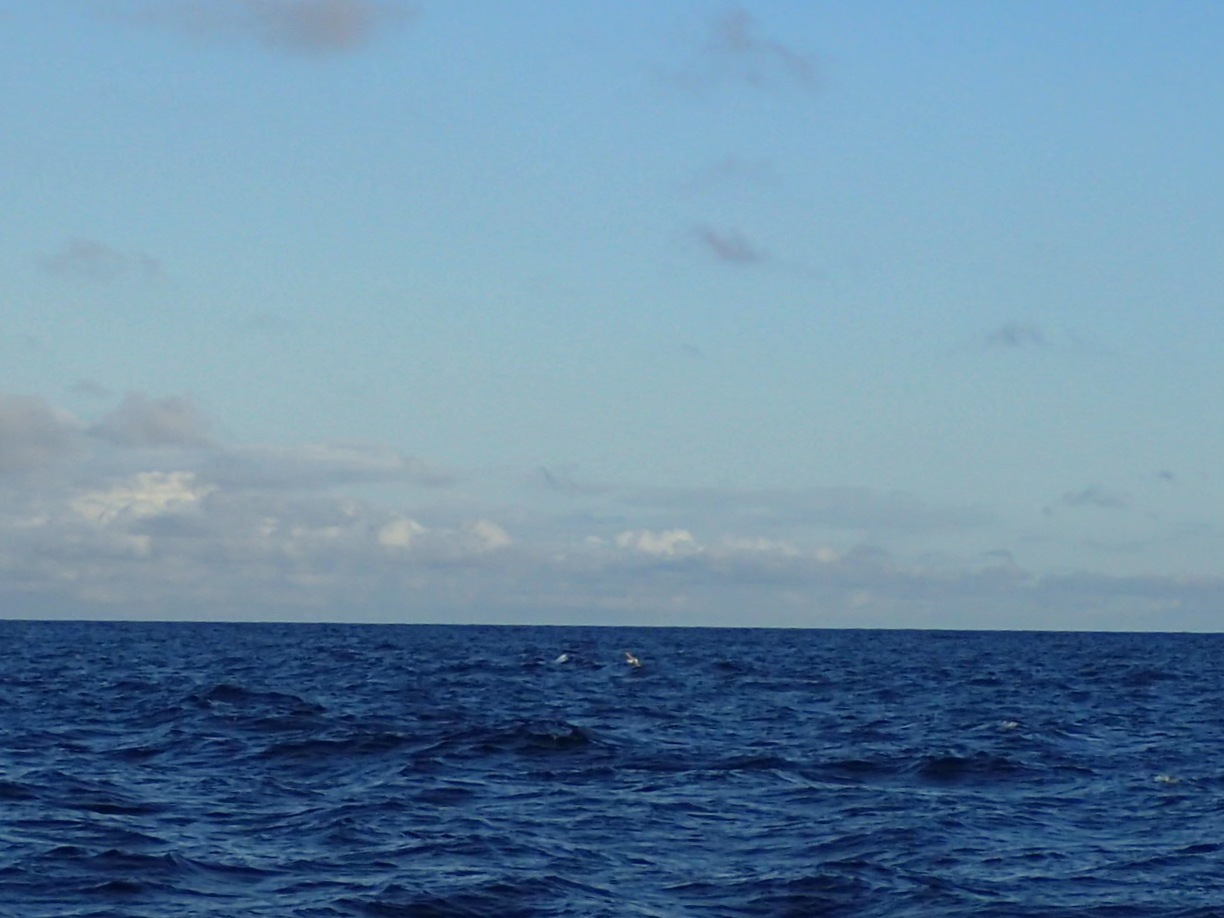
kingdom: Animalia
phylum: Chordata
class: Aves
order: Procellariiformes
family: Procellariidae
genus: Fulmarus
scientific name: Fulmarus glacialis
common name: Northern fulmar
